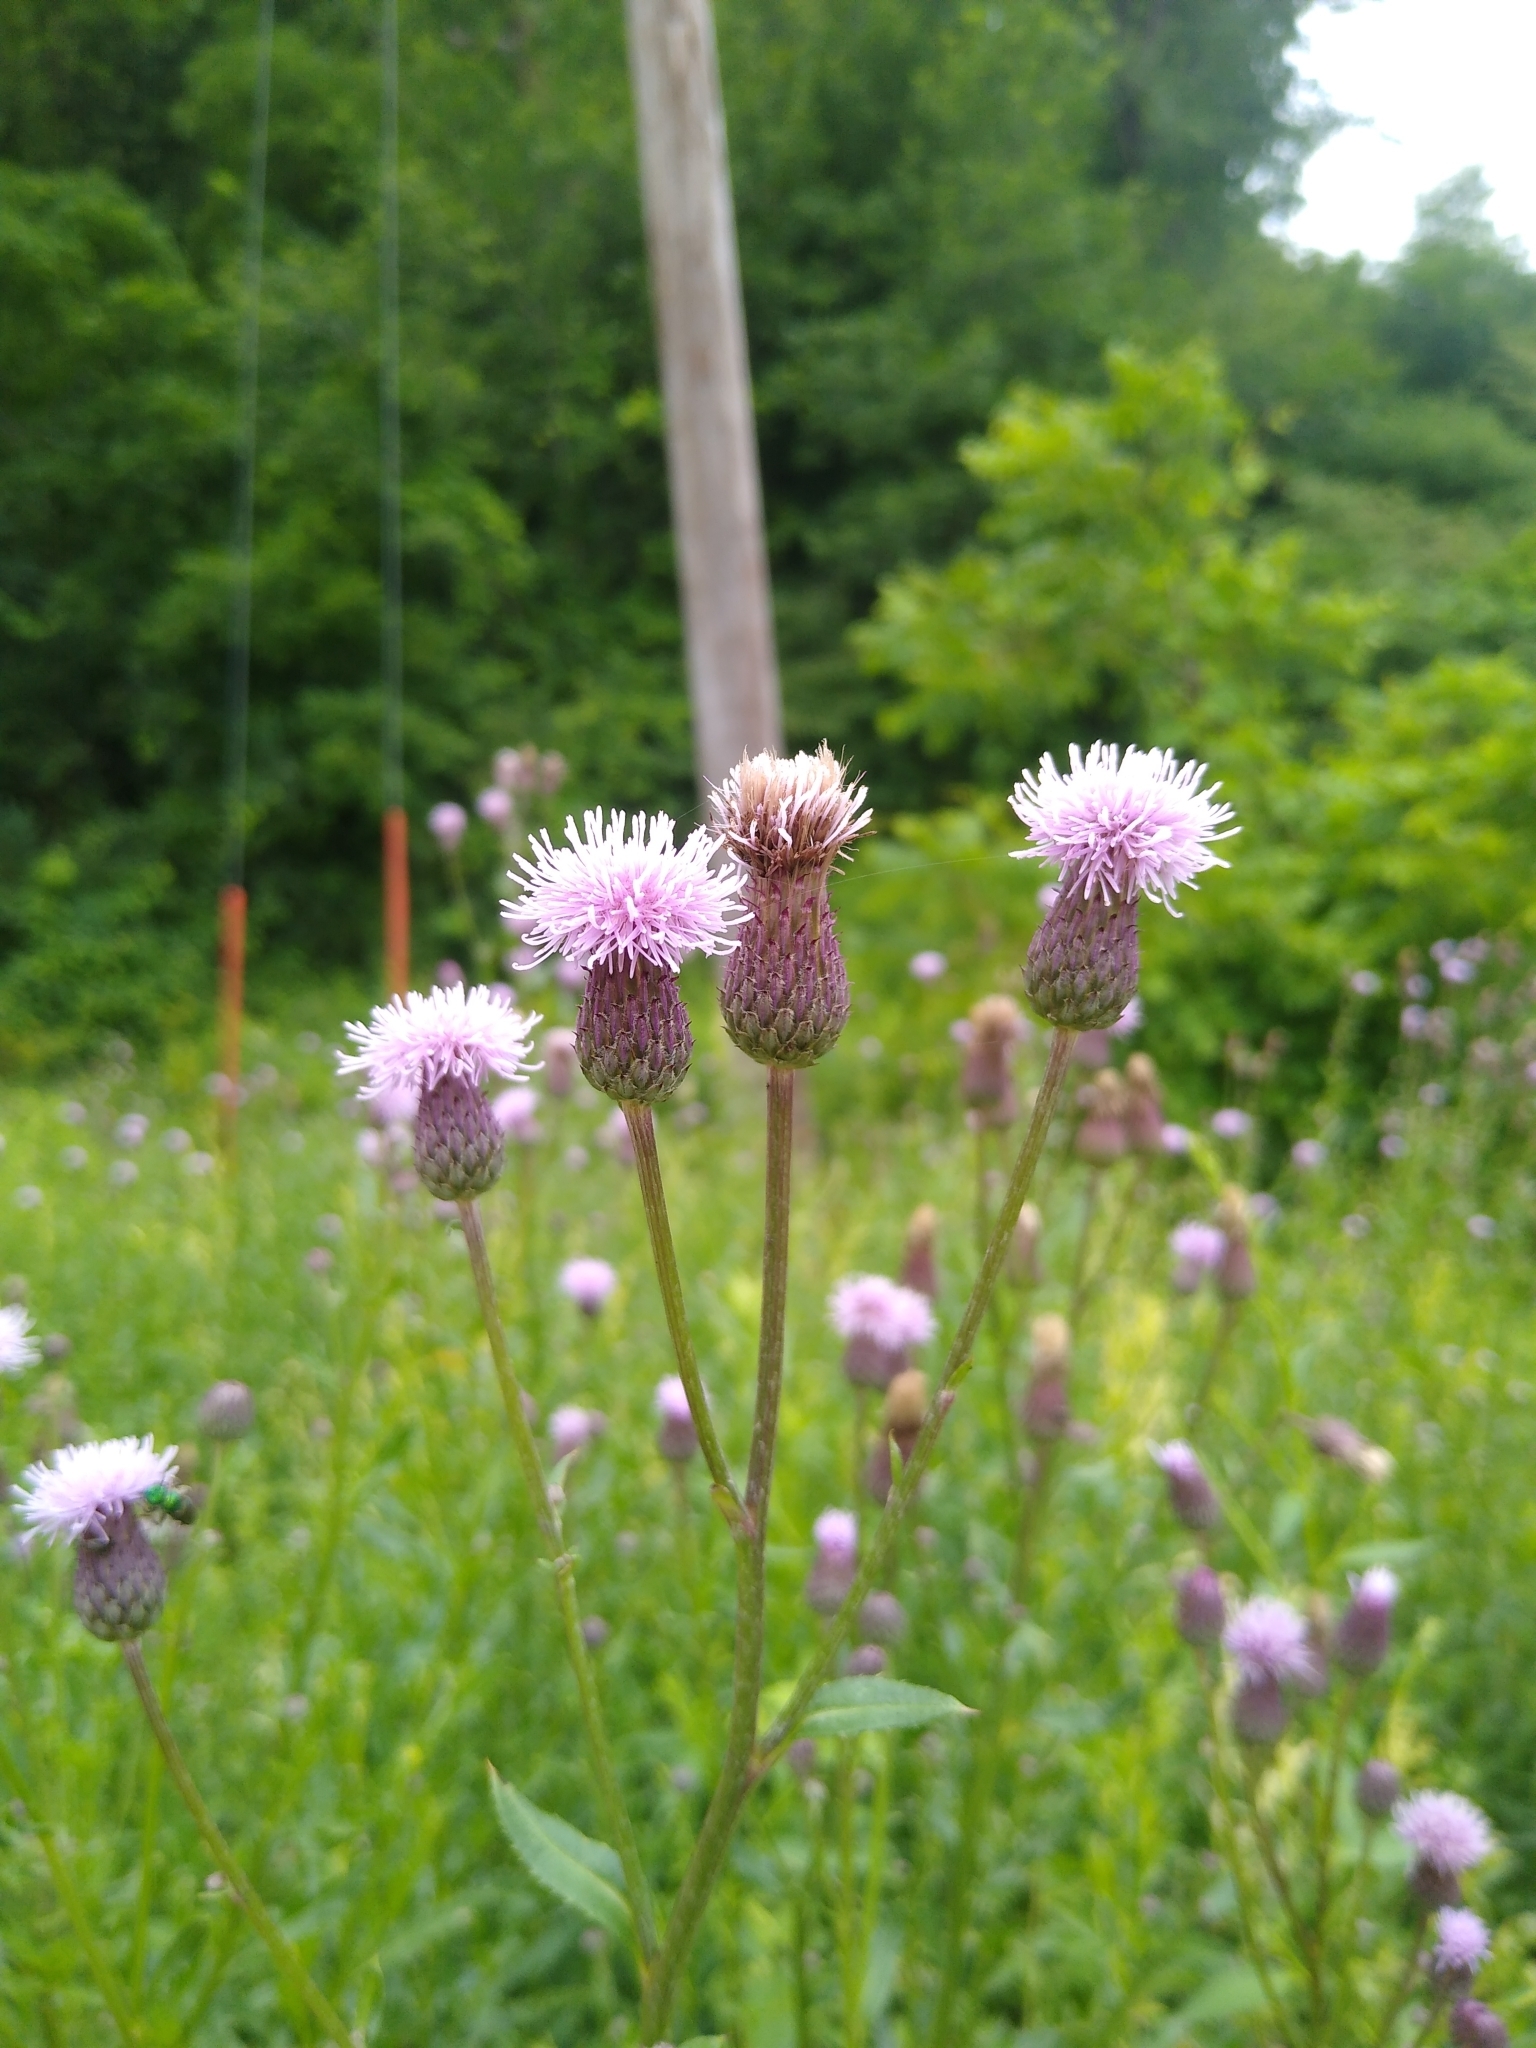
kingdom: Plantae
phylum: Tracheophyta
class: Magnoliopsida
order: Asterales
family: Asteraceae
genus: Cirsium
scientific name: Cirsium arvense
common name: Creeping thistle
